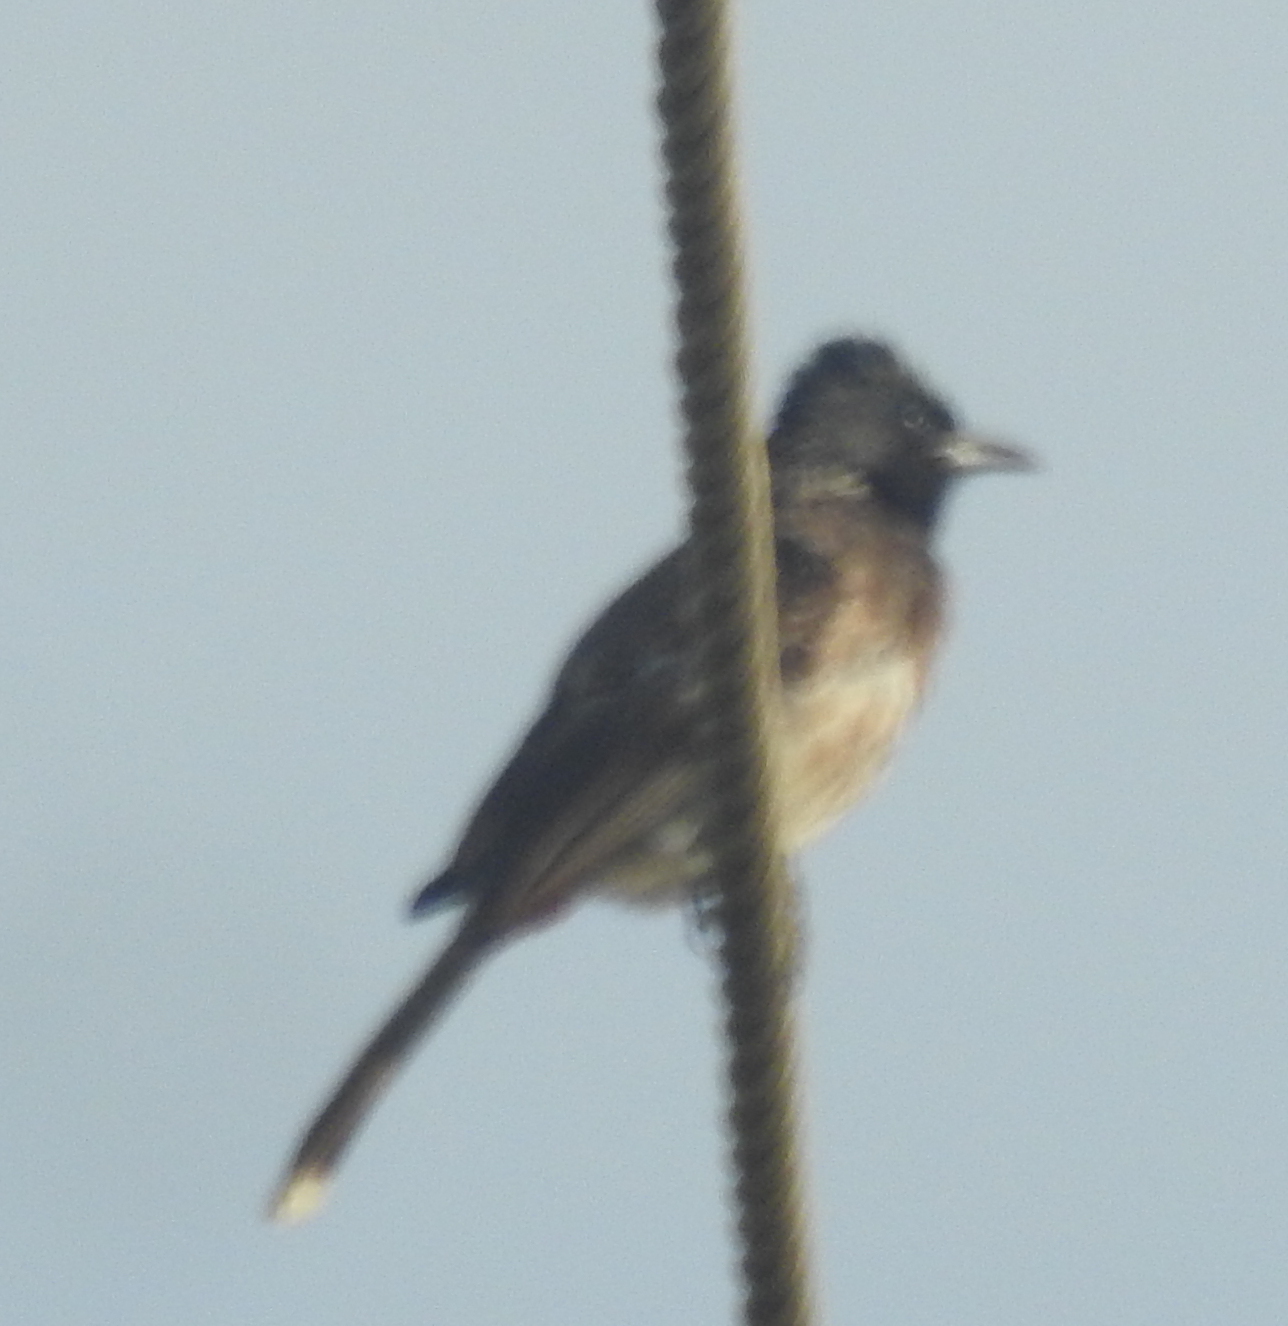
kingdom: Animalia
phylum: Chordata
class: Aves
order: Passeriformes
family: Pycnonotidae
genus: Pycnonotus
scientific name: Pycnonotus cafer
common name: Red-vented bulbul
